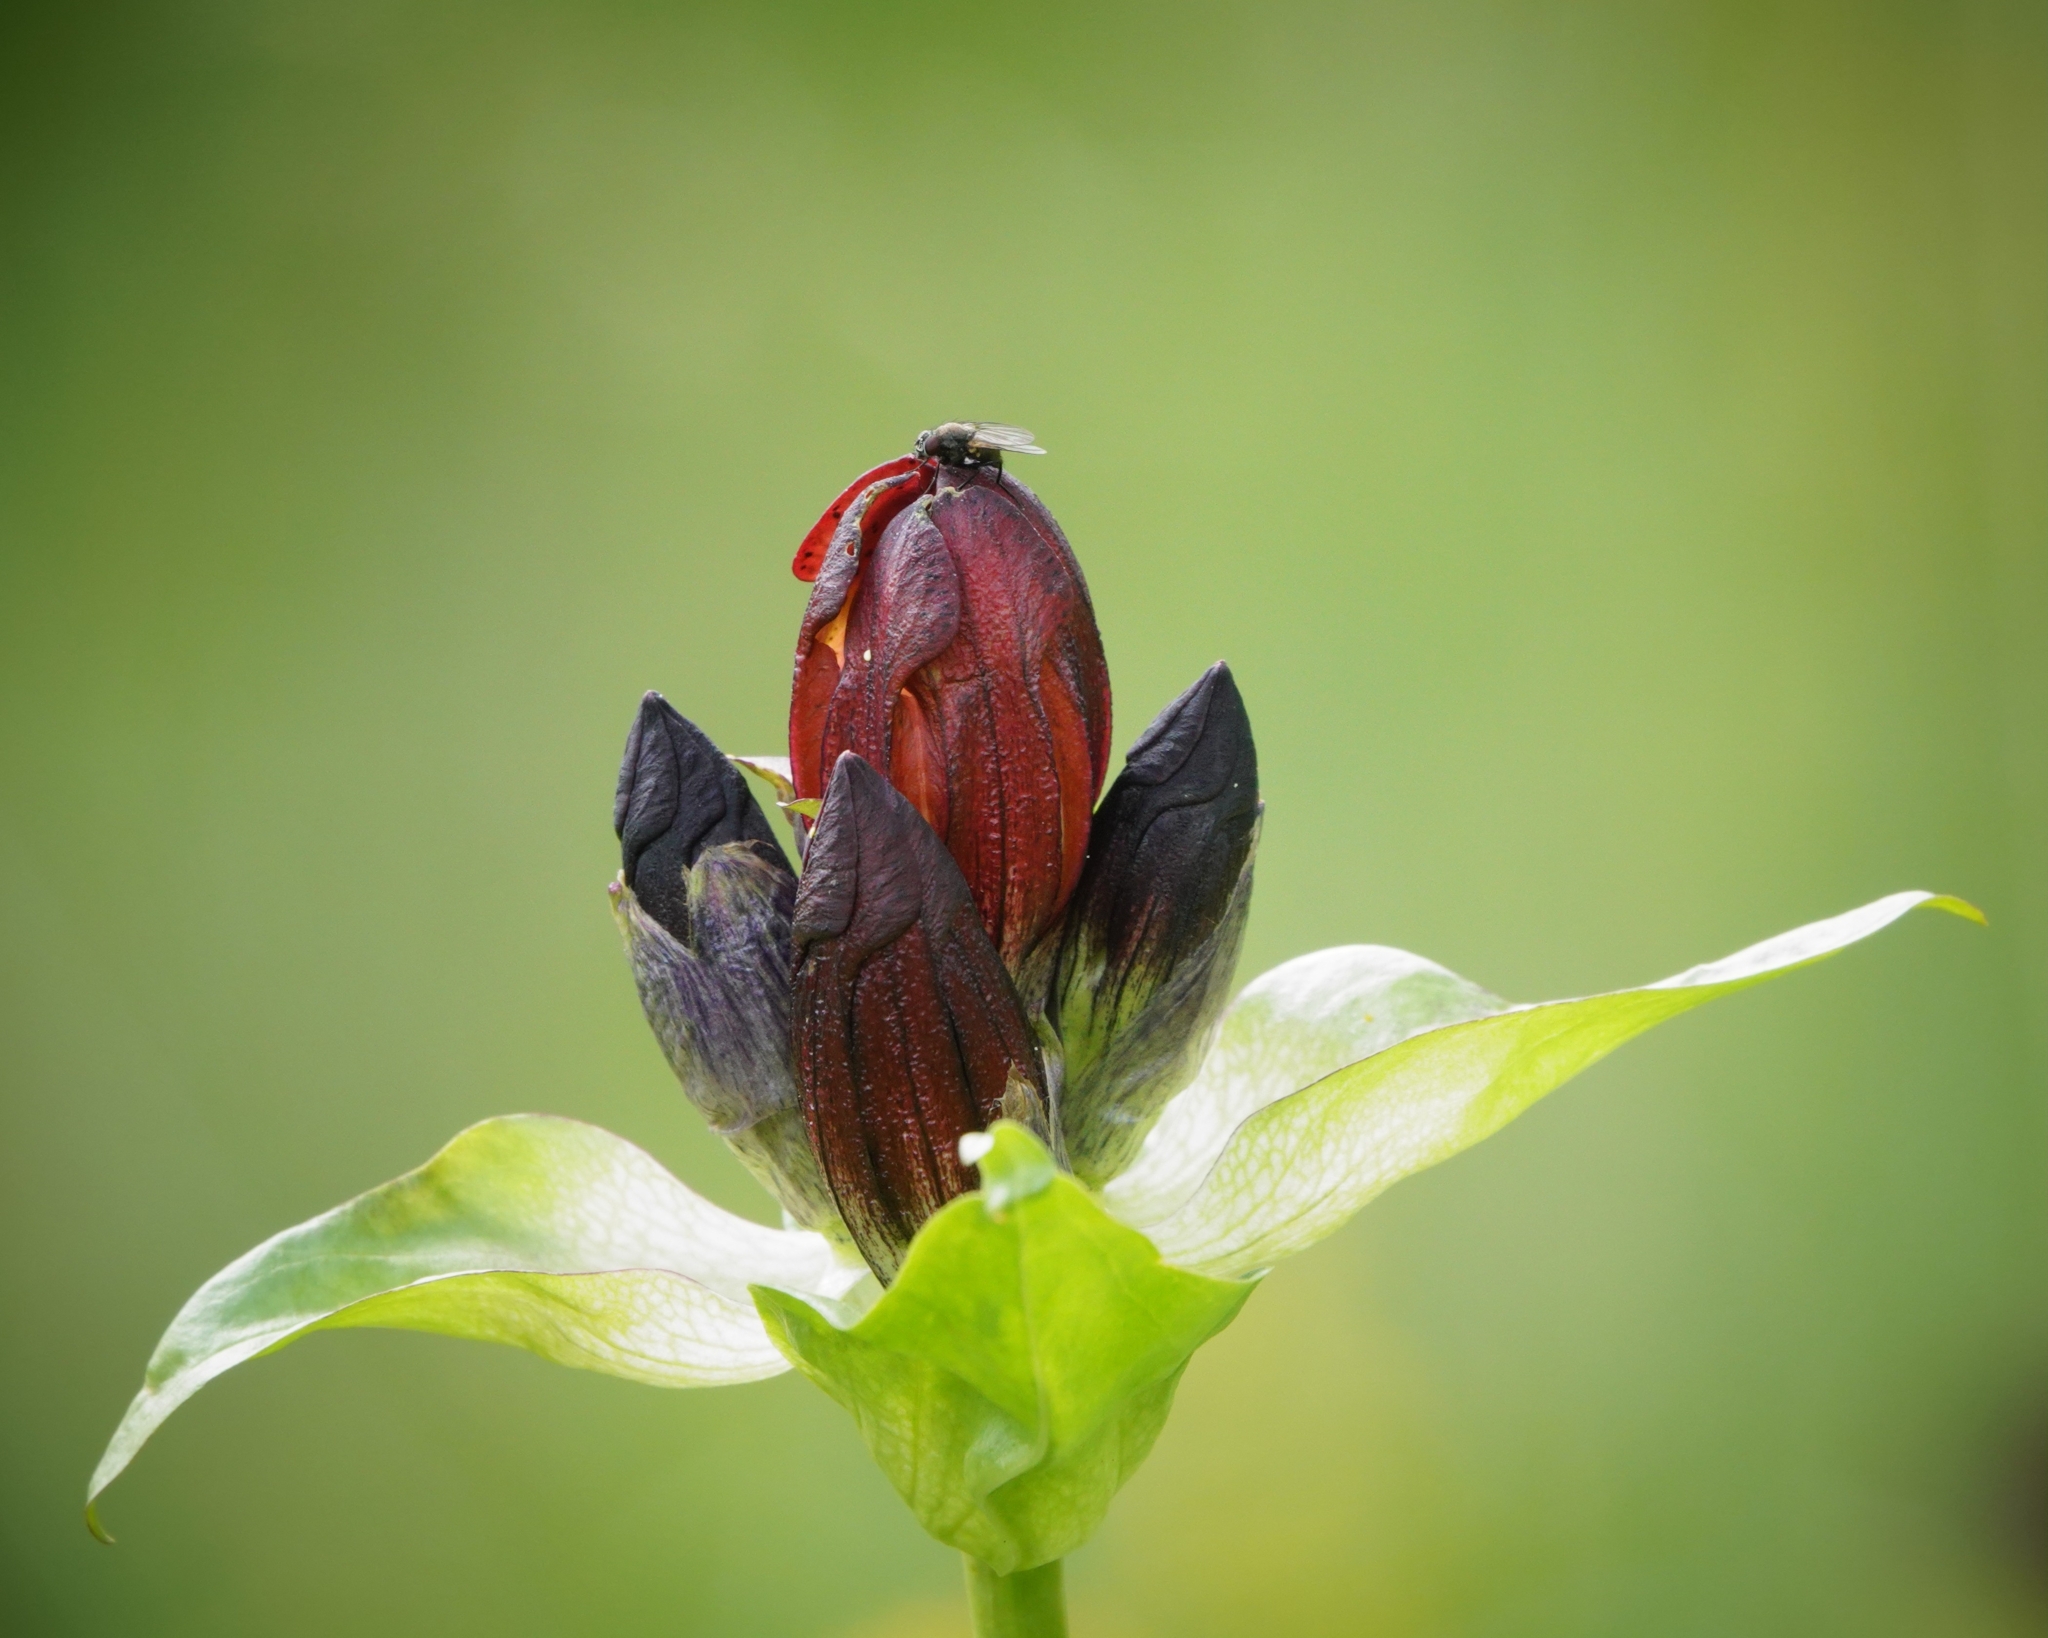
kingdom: Plantae
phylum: Tracheophyta
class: Magnoliopsida
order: Gentianales
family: Gentianaceae
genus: Gentiana
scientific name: Gentiana purpurea
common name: Purple gentian
